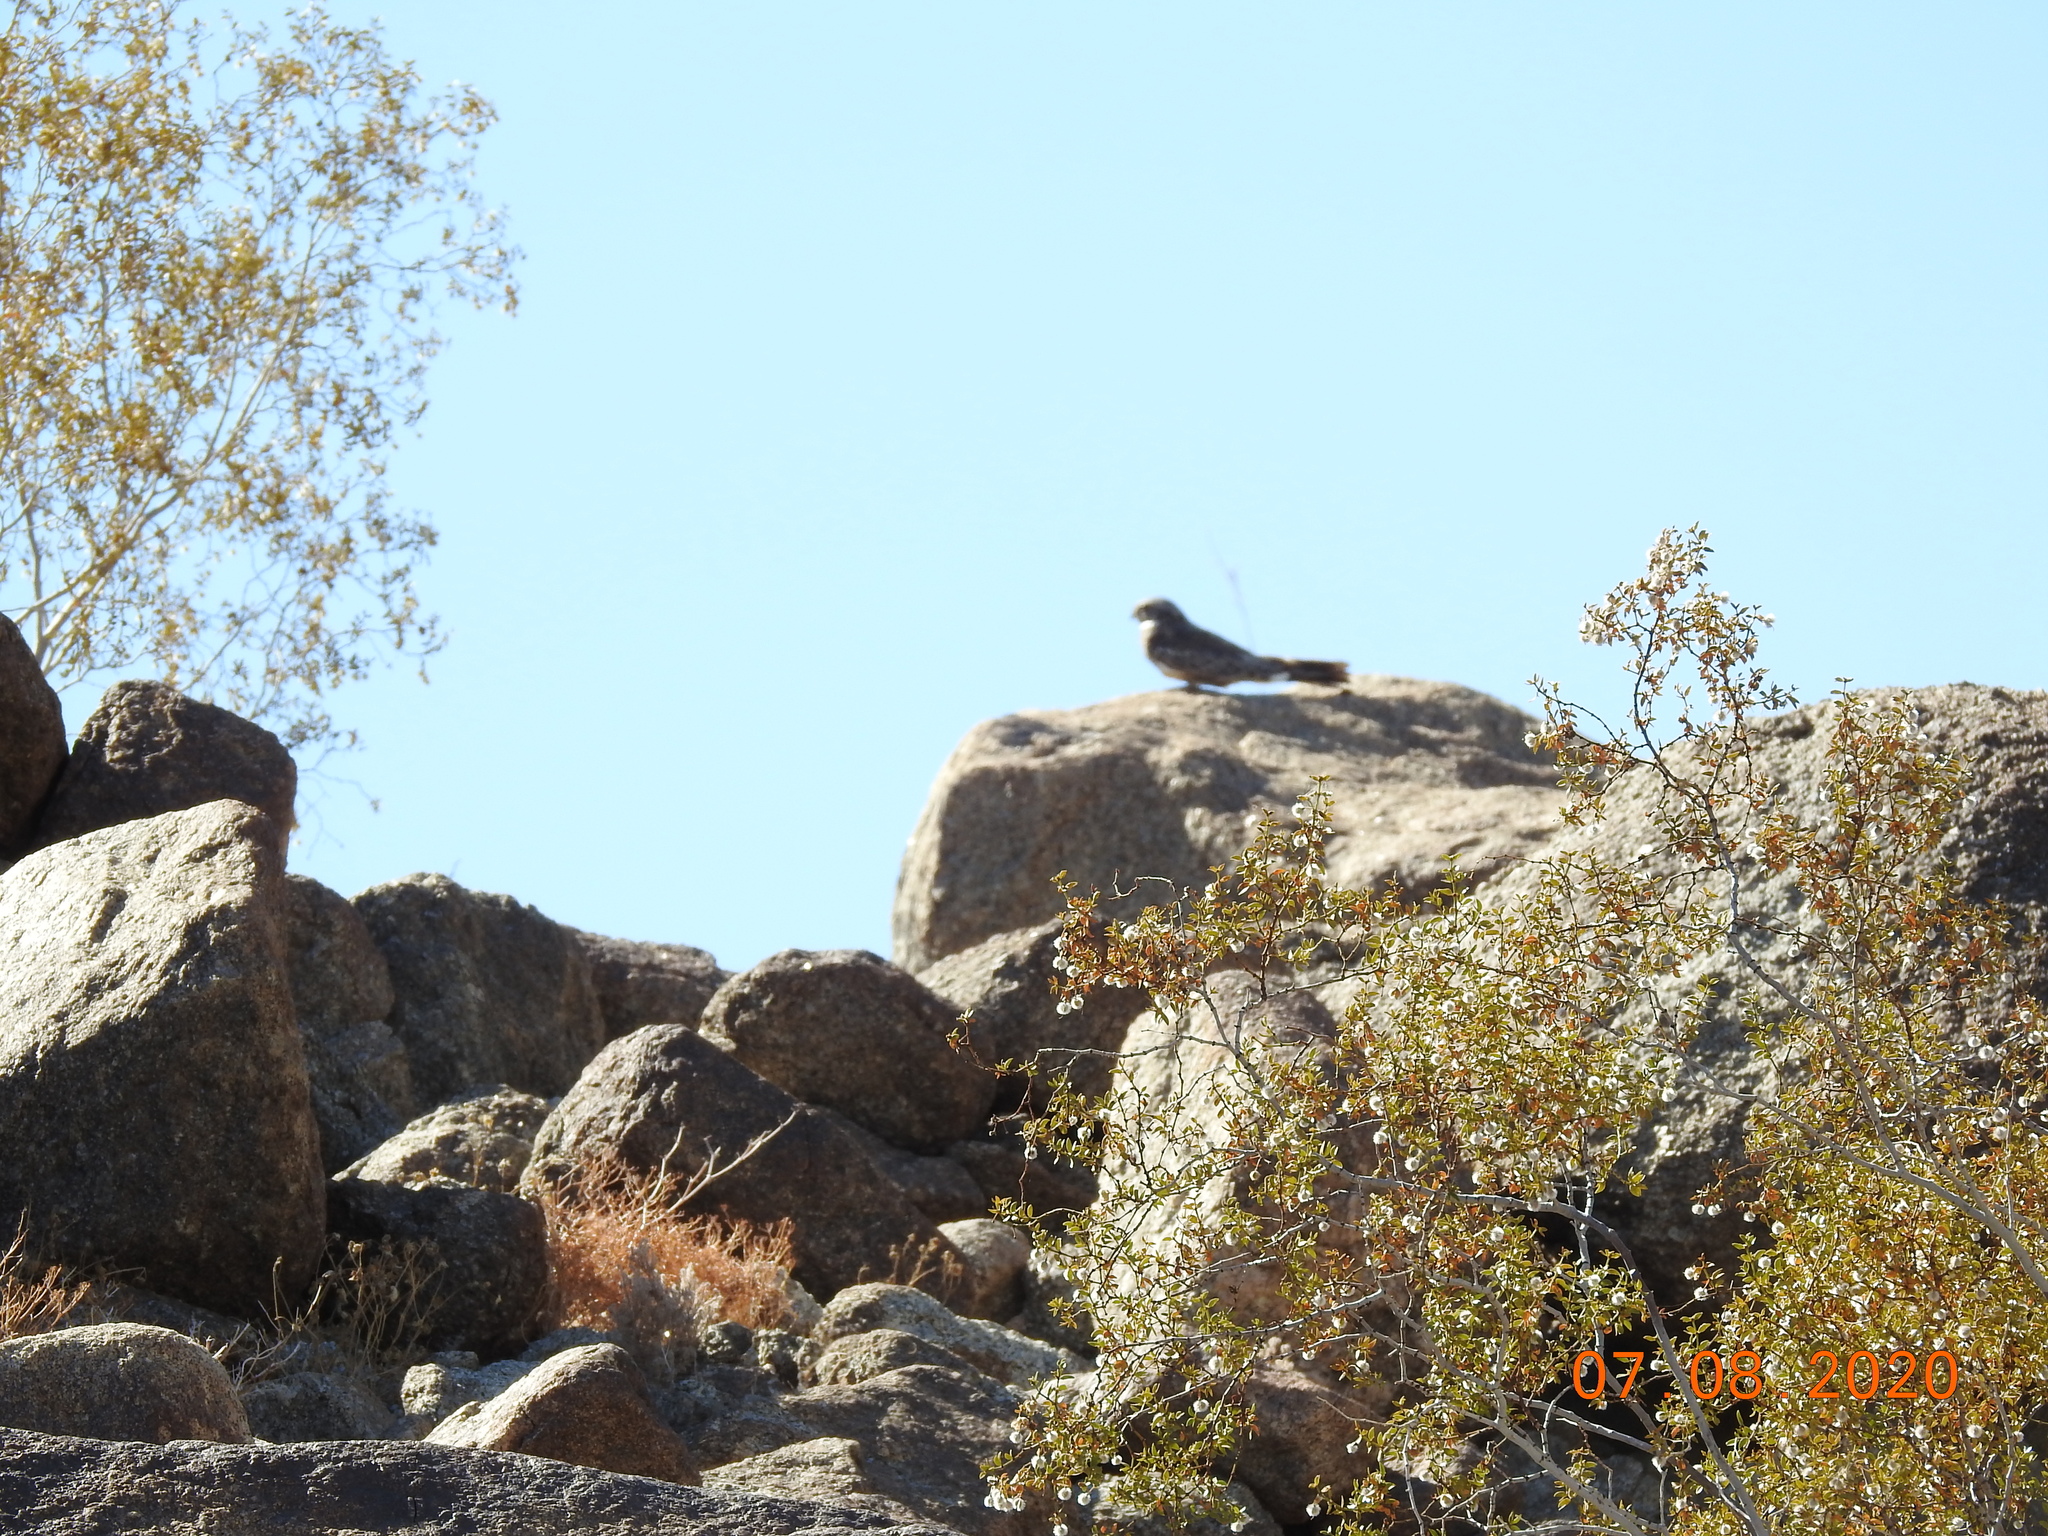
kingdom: Animalia
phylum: Chordata
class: Aves
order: Caprimulgiformes
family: Caprimulgidae
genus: Chordeiles
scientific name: Chordeiles acutipennis
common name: Lesser nighthawk
